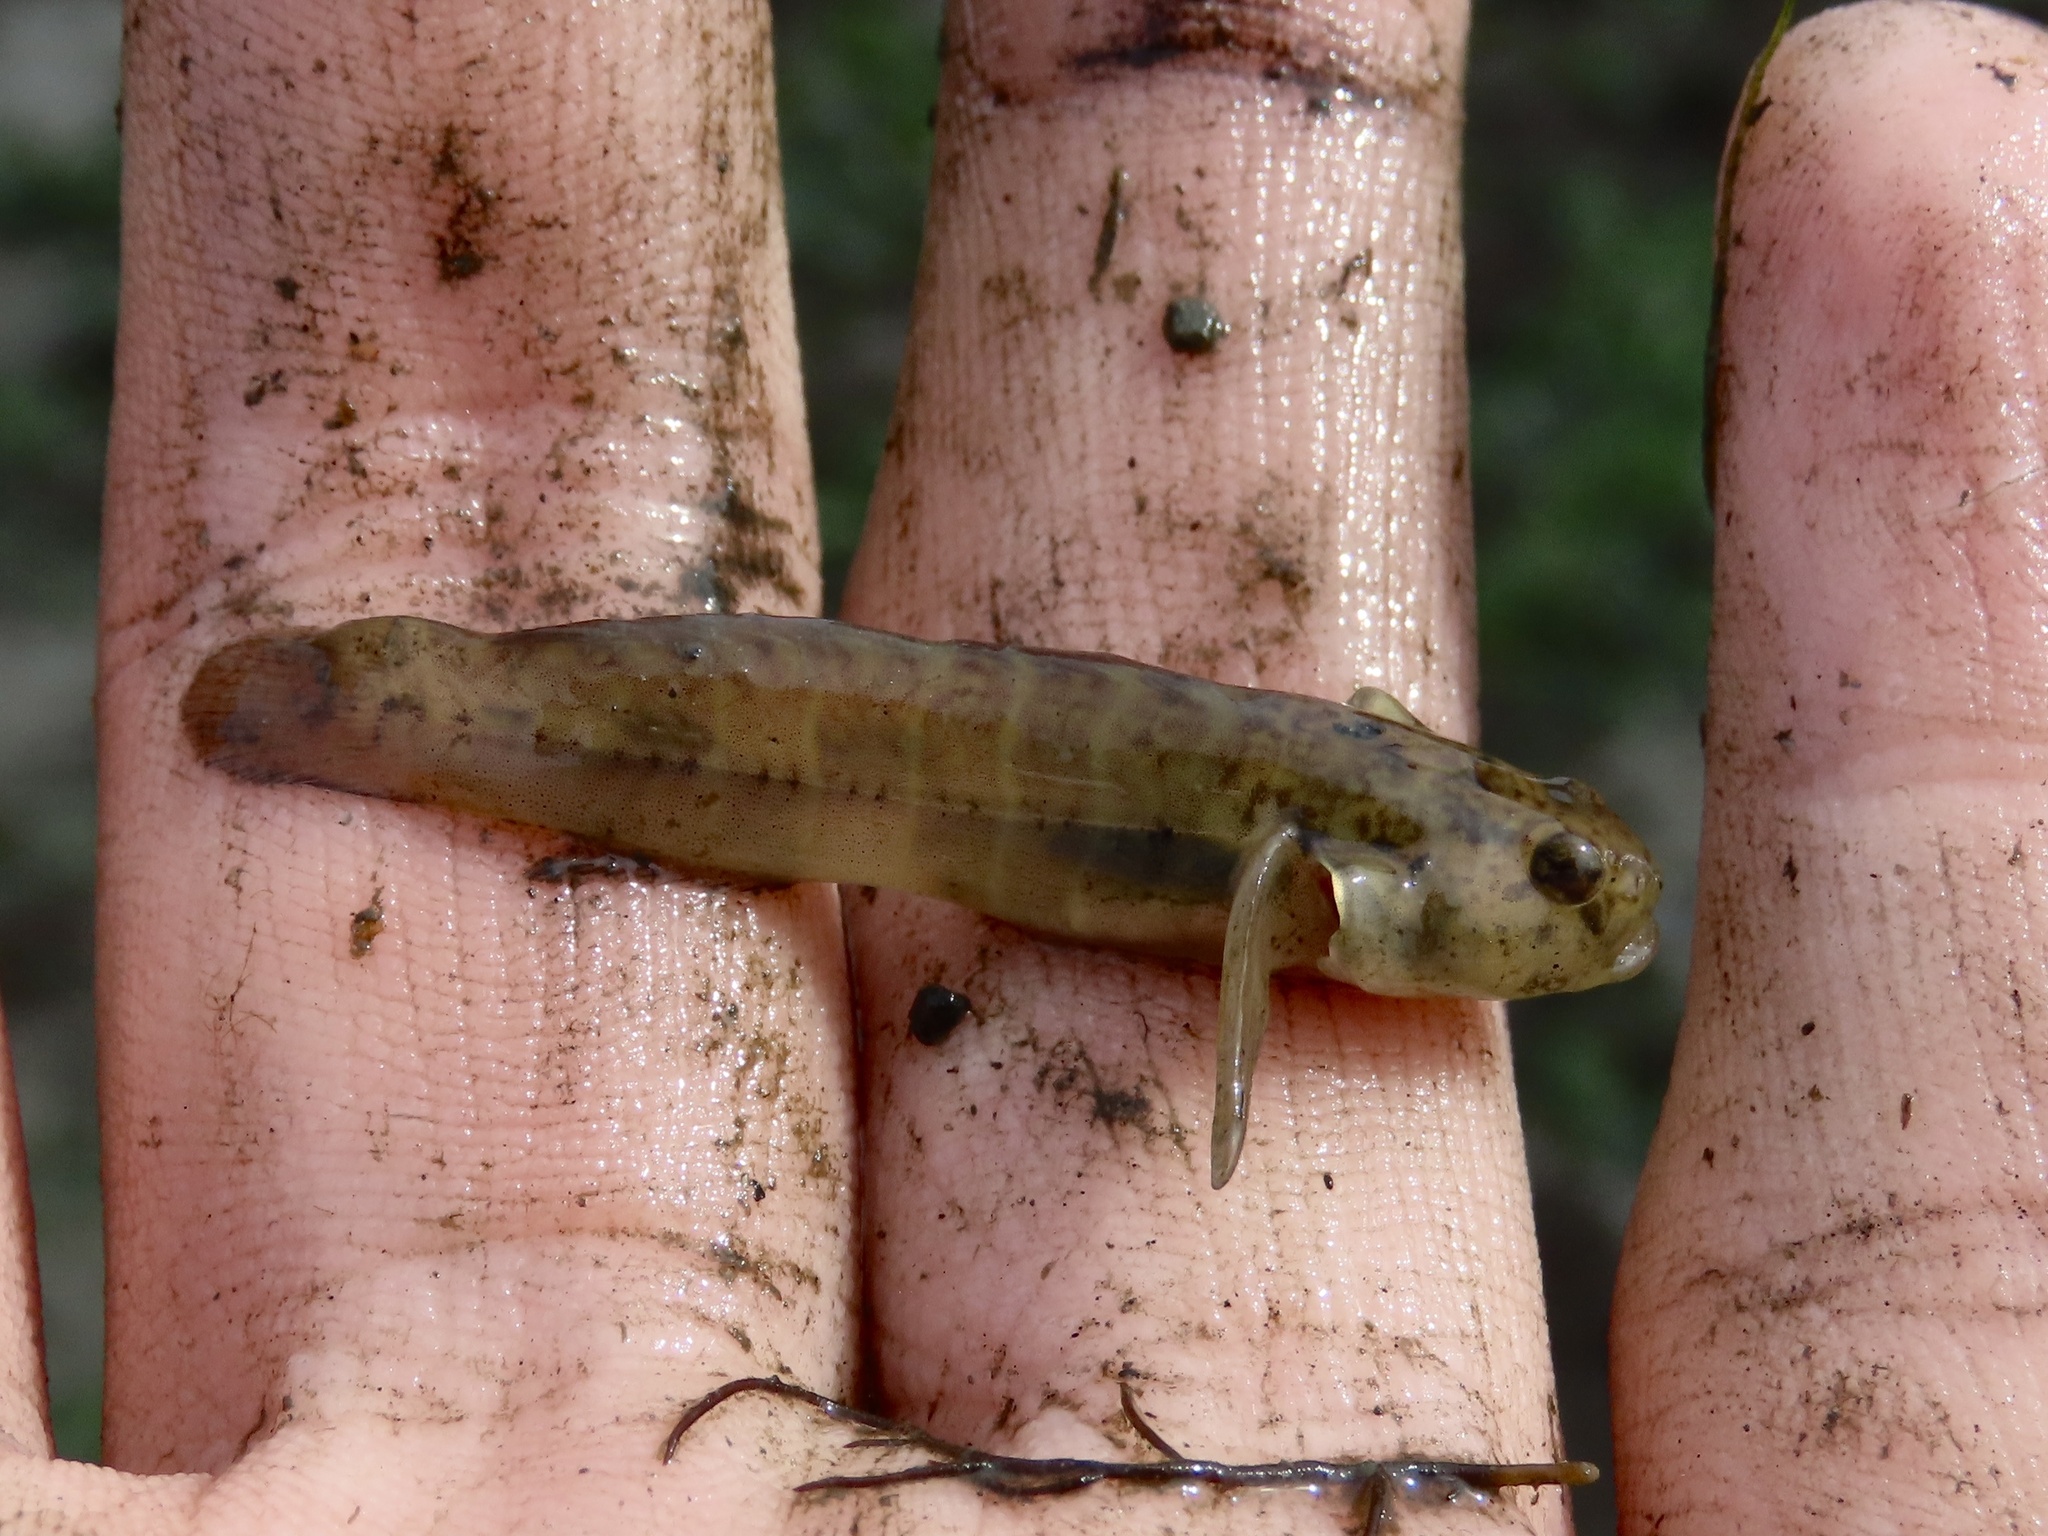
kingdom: Animalia
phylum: Chordata
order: Perciformes
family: Gobiidae
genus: Gobiosoma
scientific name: Gobiosoma ginsburgi
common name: Seaboard goby
